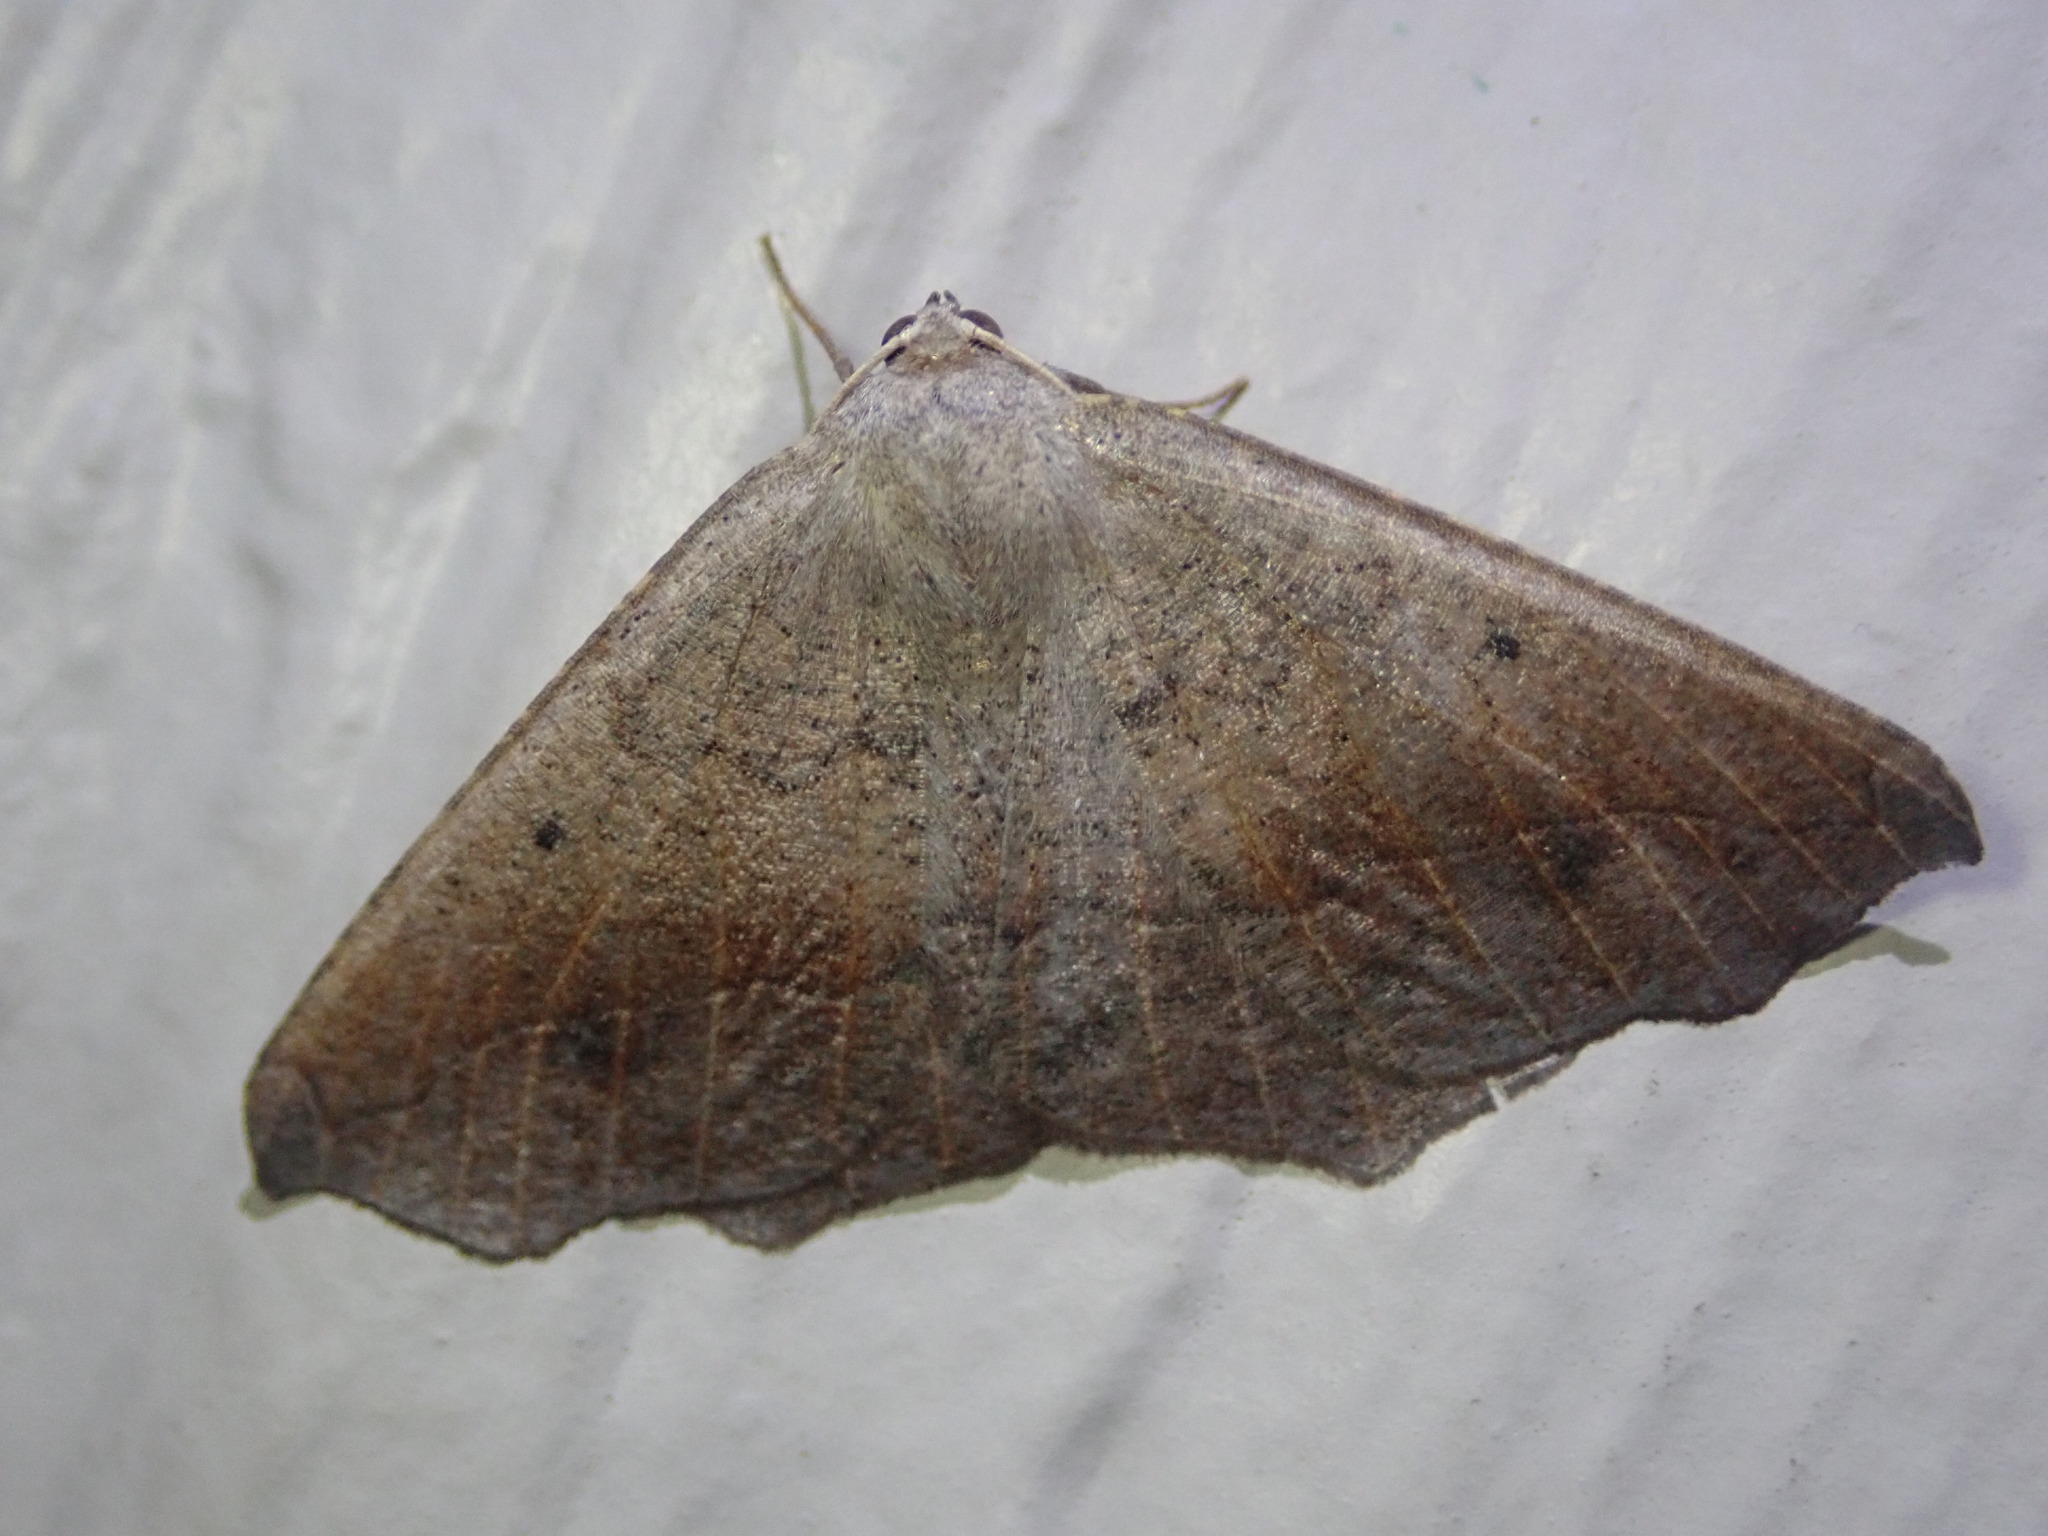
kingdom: Animalia
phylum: Arthropoda
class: Insecta
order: Lepidoptera
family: Geometridae
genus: Prochoerodes
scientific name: Prochoerodes forficaria
